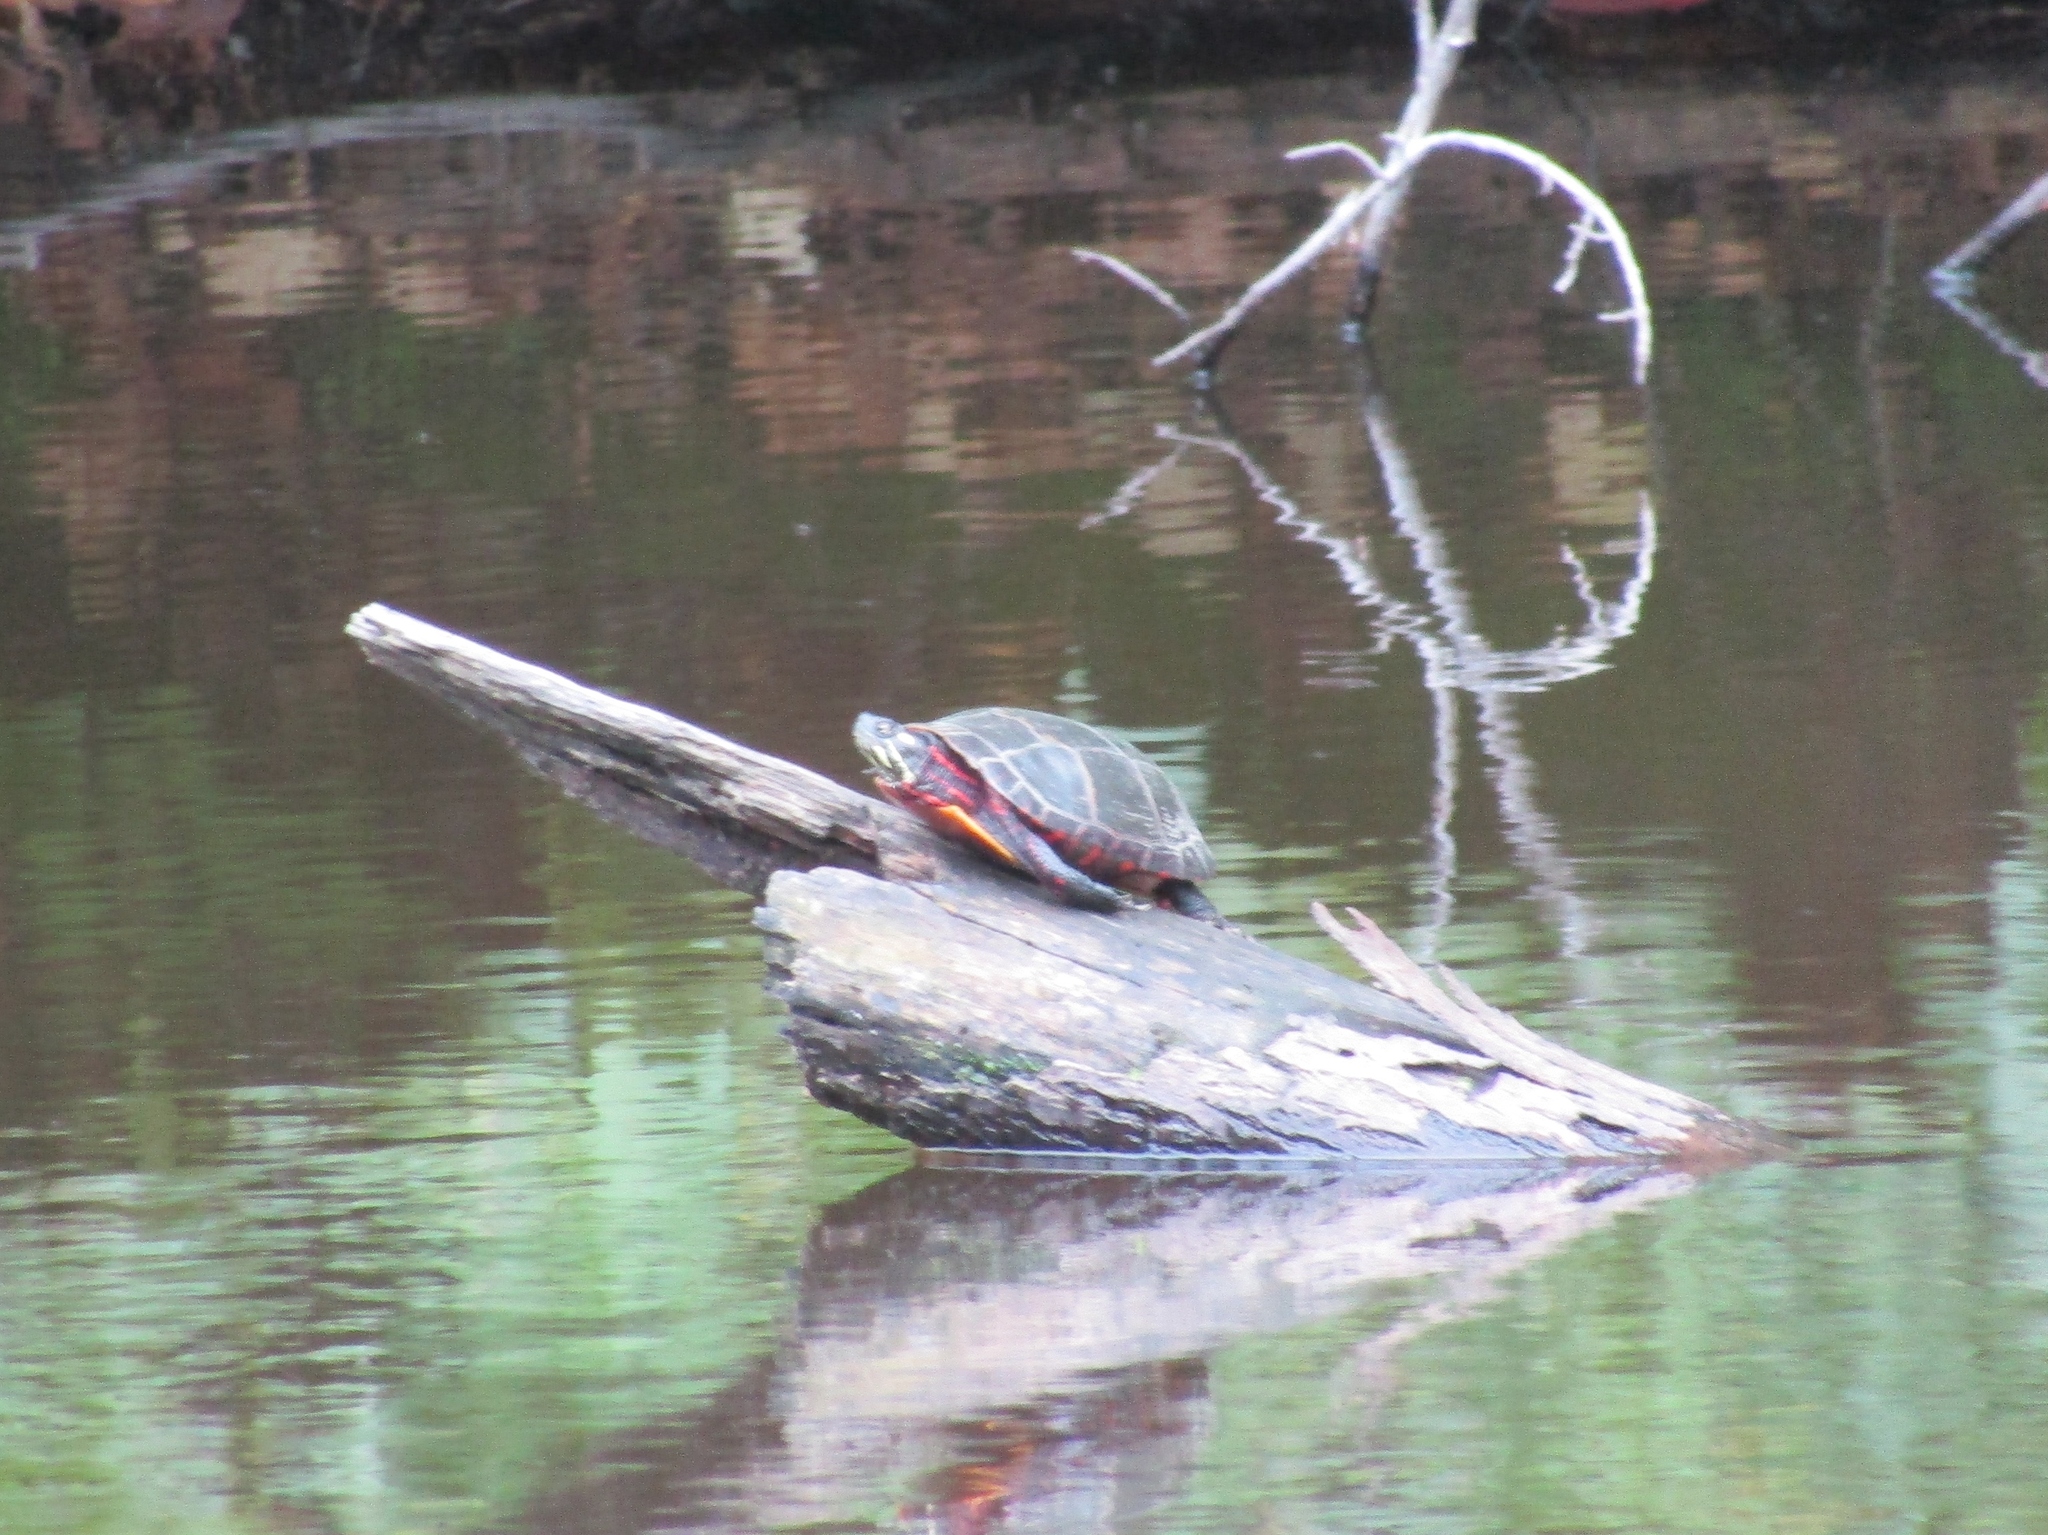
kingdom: Animalia
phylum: Chordata
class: Testudines
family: Emydidae
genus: Chrysemys
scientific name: Chrysemys picta
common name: Painted turtle
